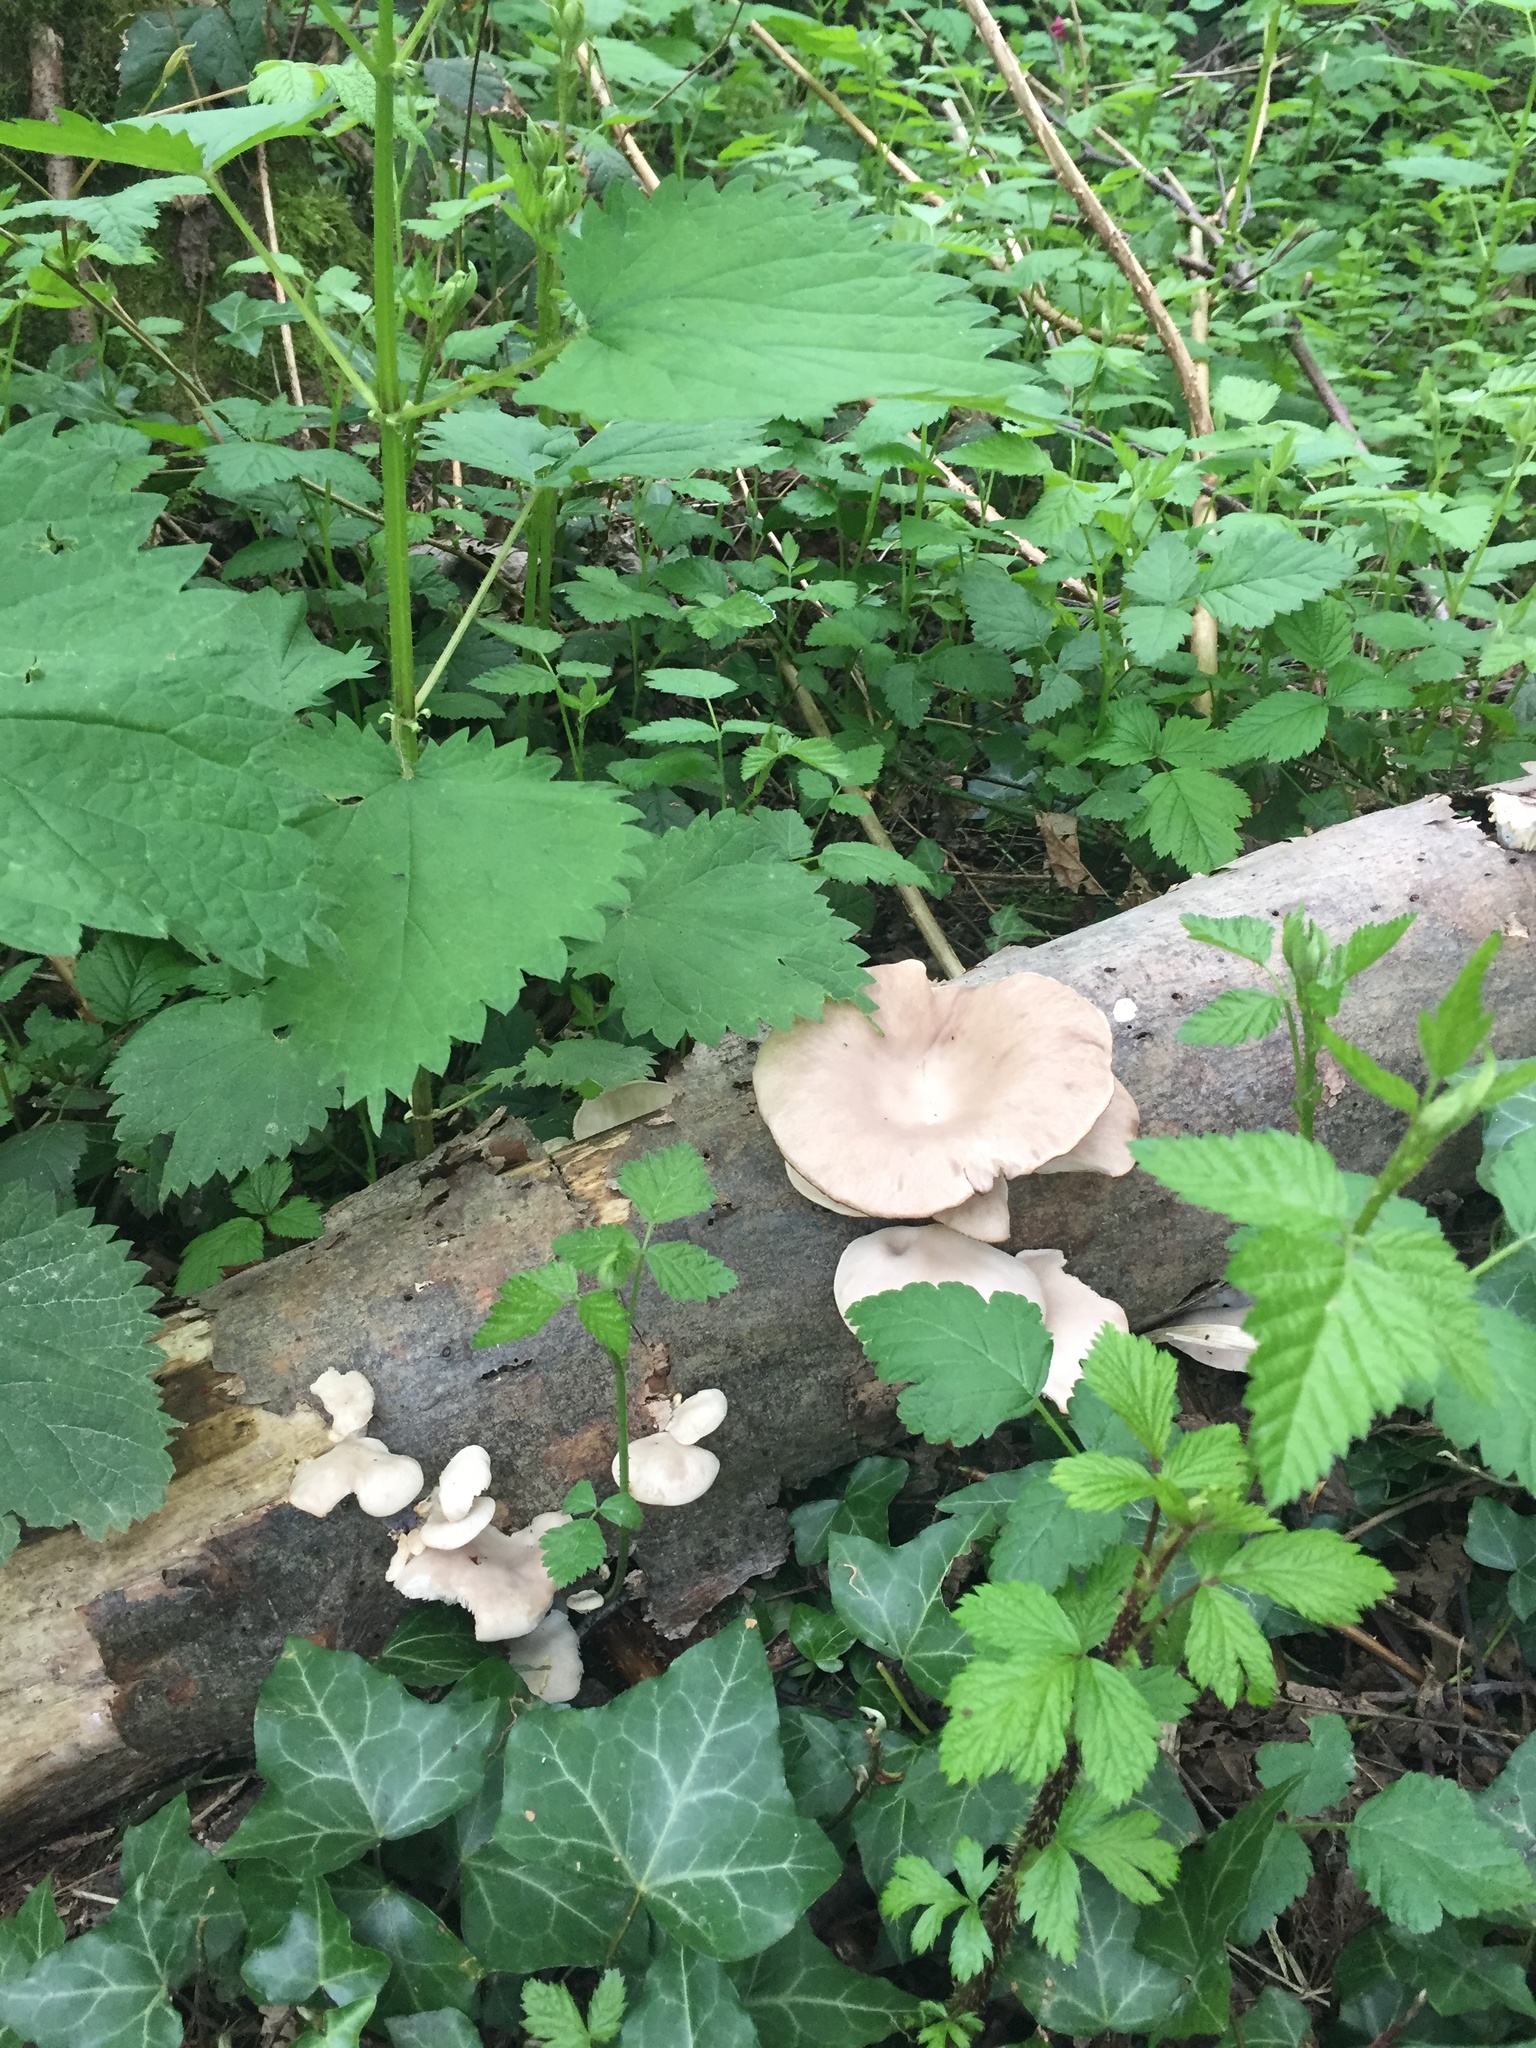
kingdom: Fungi
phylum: Basidiomycota
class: Agaricomycetes
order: Agaricales
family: Pleurotaceae
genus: Pleurotus
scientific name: Pleurotus pulmonarius
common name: Pale oyster
